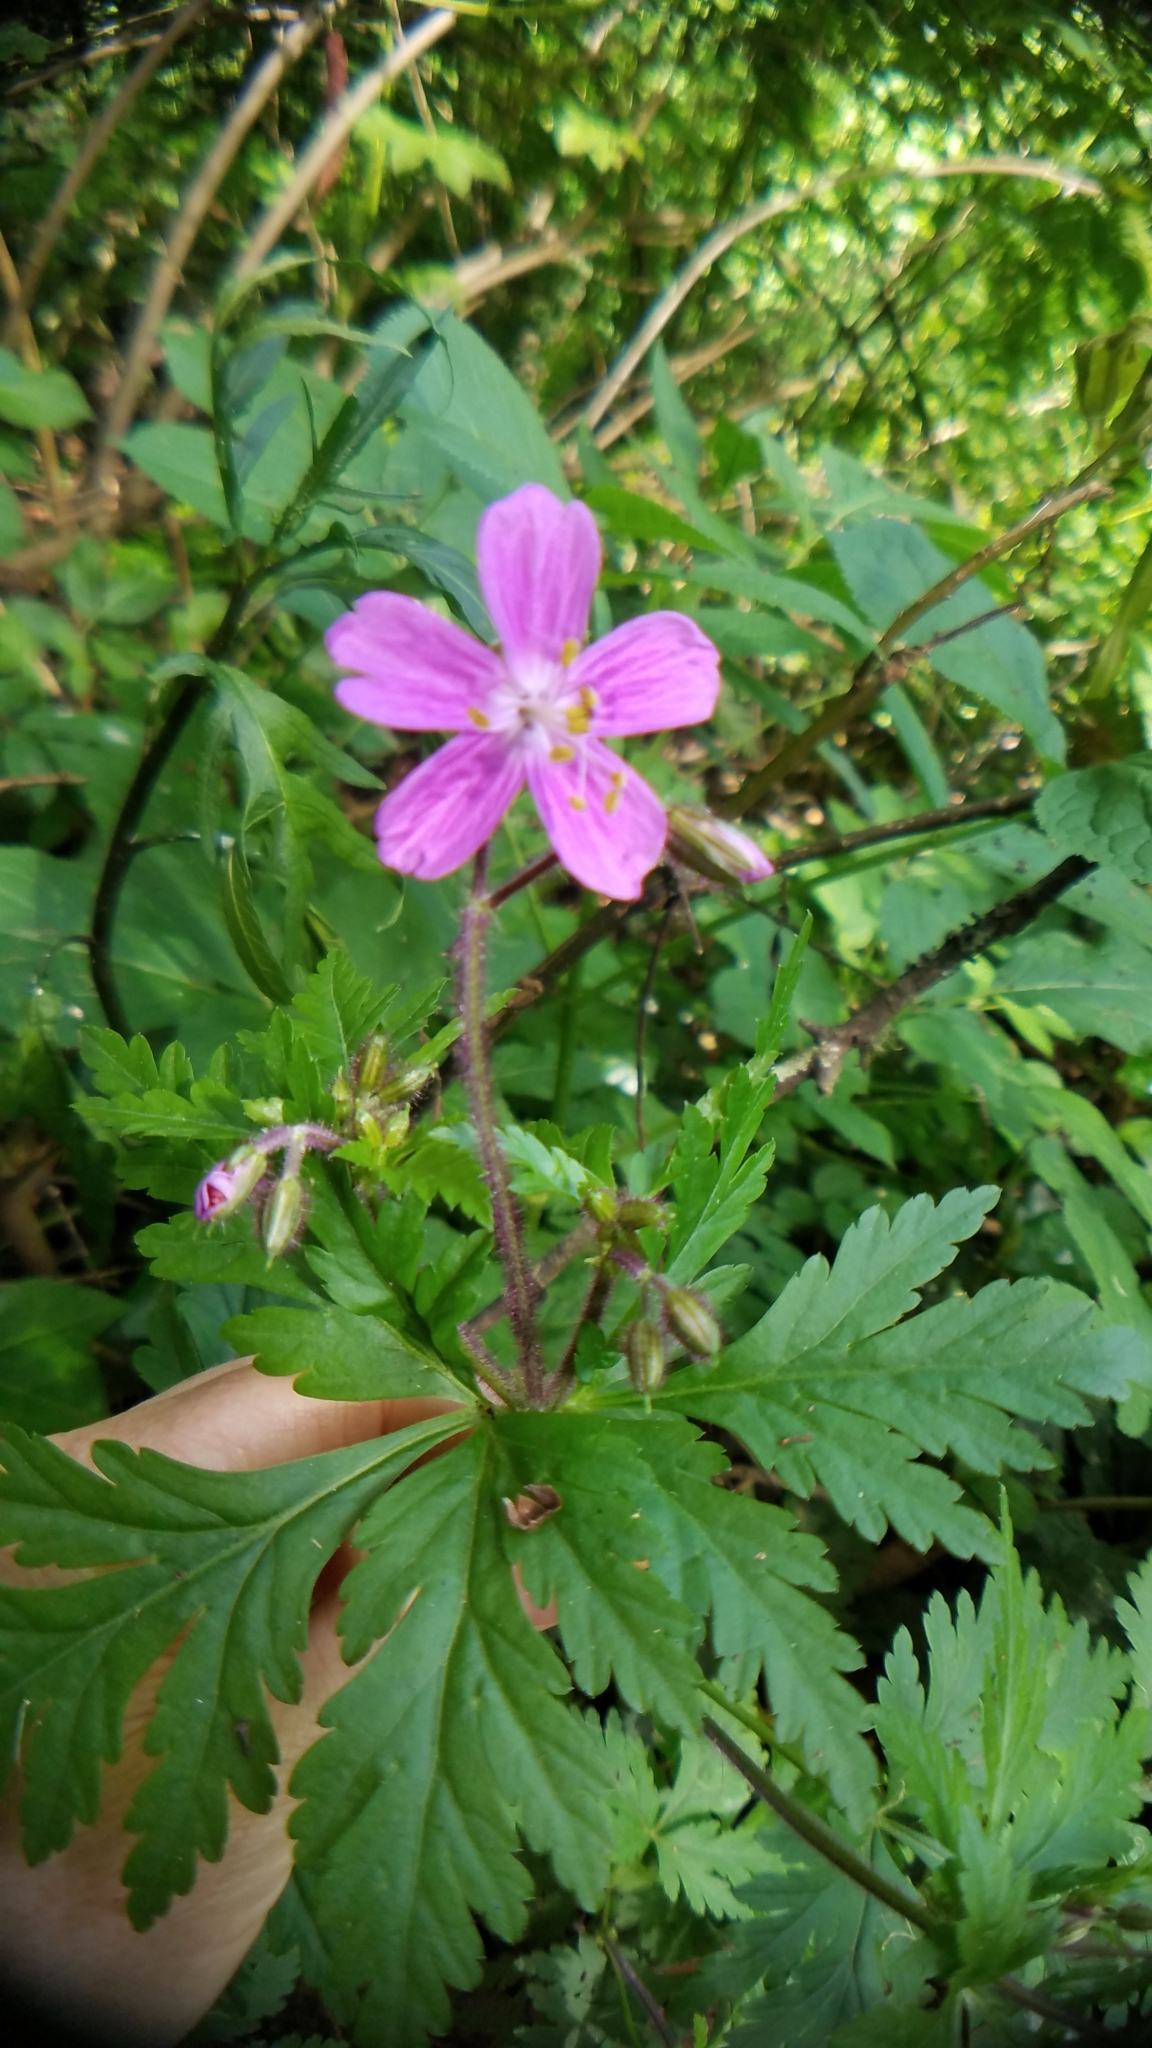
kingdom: Plantae
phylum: Tracheophyta
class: Magnoliopsida
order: Geraniales
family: Geraniaceae
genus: Geranium
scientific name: Geranium reuteri
